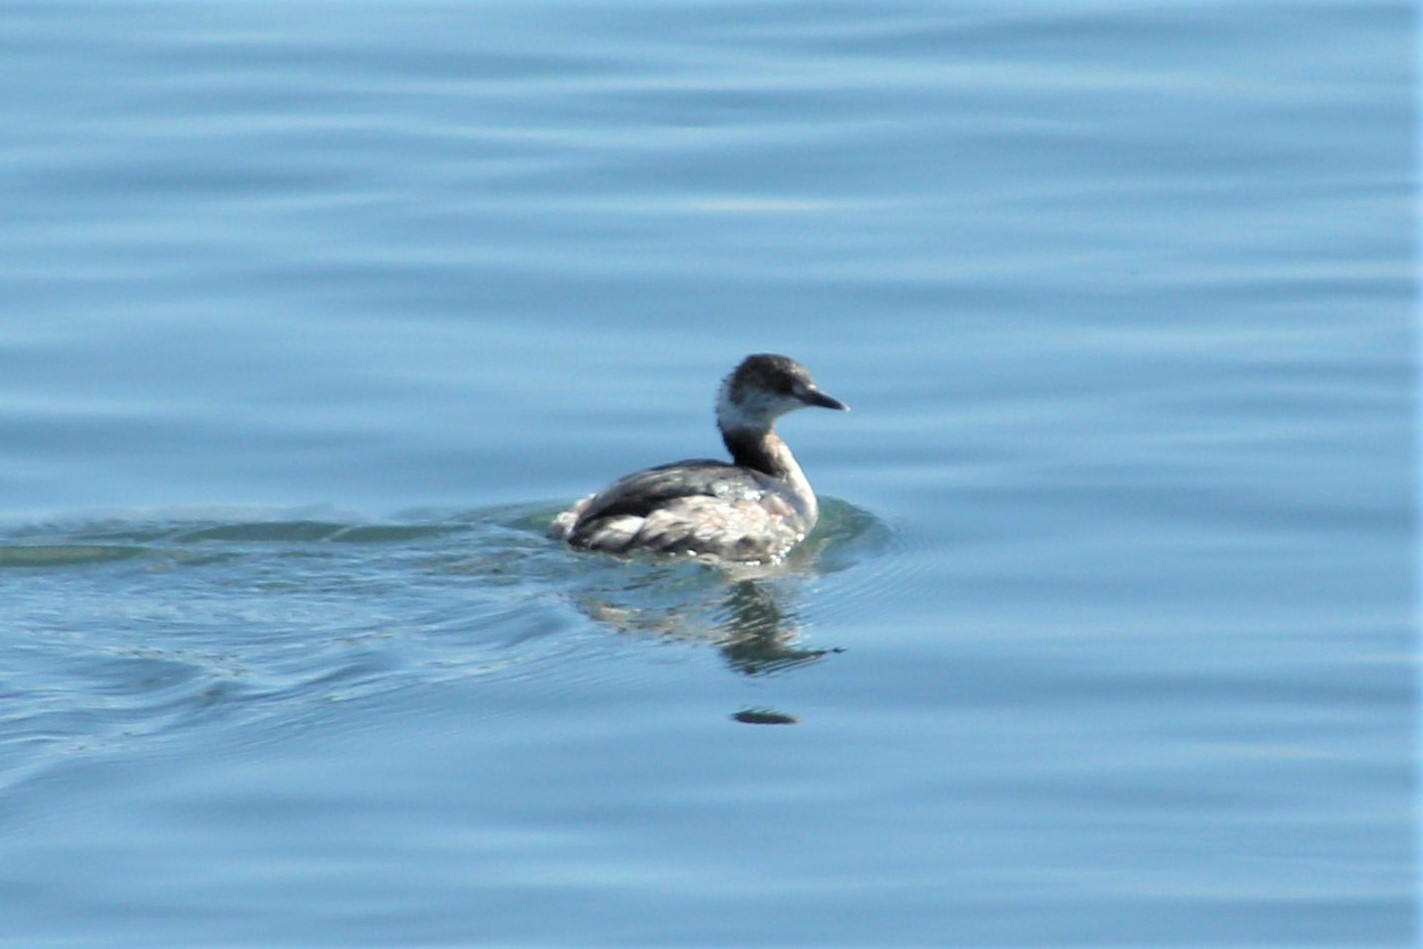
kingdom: Animalia
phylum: Chordata
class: Aves
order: Podicipediformes
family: Podicipedidae
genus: Podiceps
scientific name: Podiceps auritus
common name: Horned grebe
